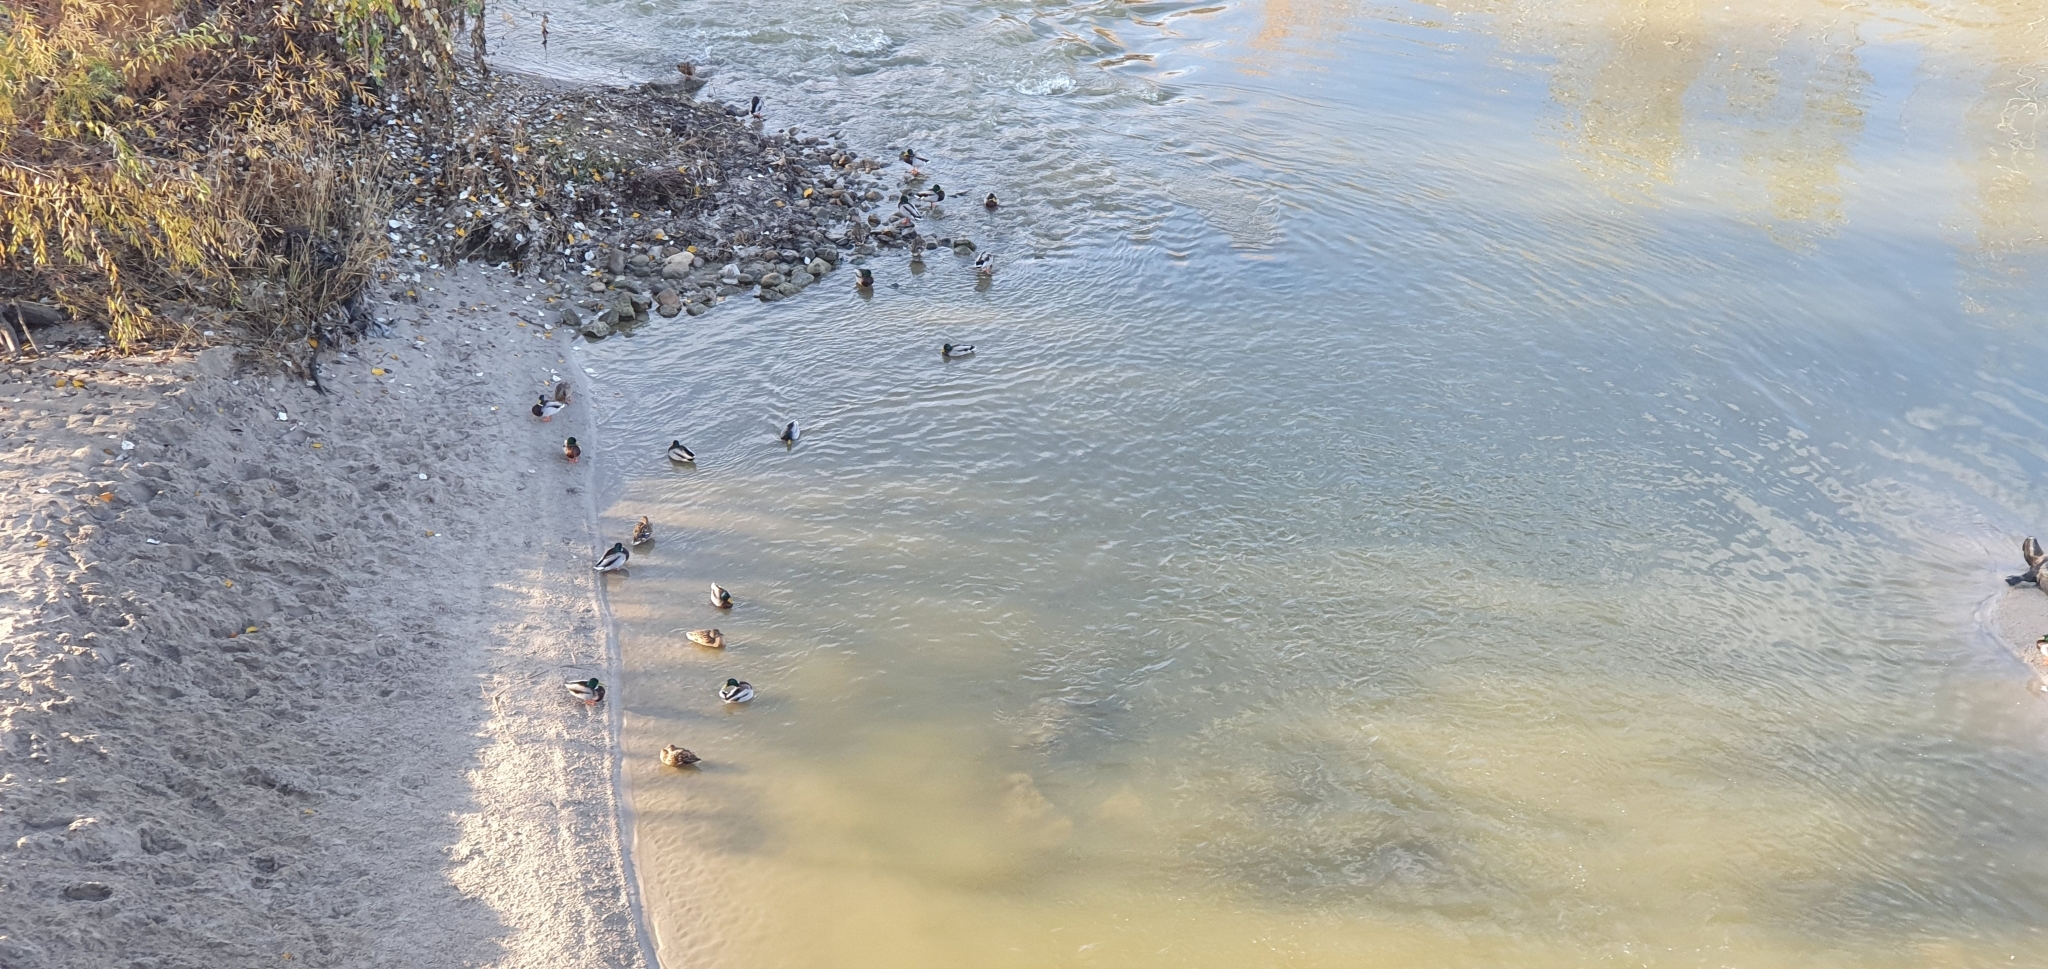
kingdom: Animalia
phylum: Chordata
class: Aves
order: Anseriformes
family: Anatidae
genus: Anas
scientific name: Anas platyrhynchos
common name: Mallard
